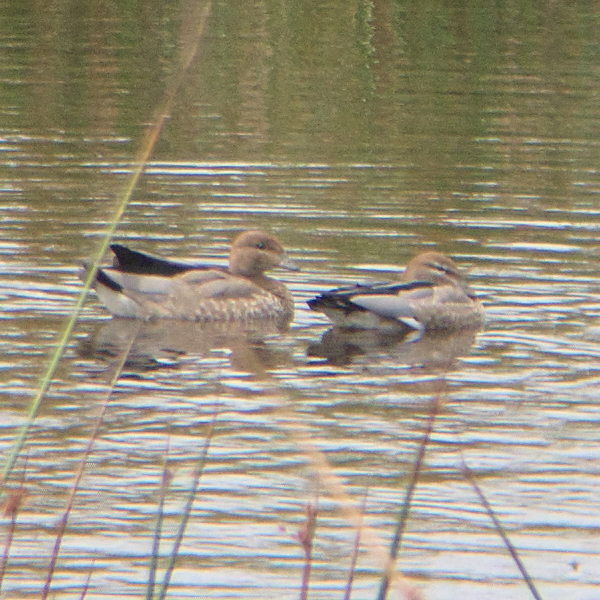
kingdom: Animalia
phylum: Chordata
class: Aves
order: Anseriformes
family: Anatidae
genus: Chenonetta
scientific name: Chenonetta jubata
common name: Maned duck
